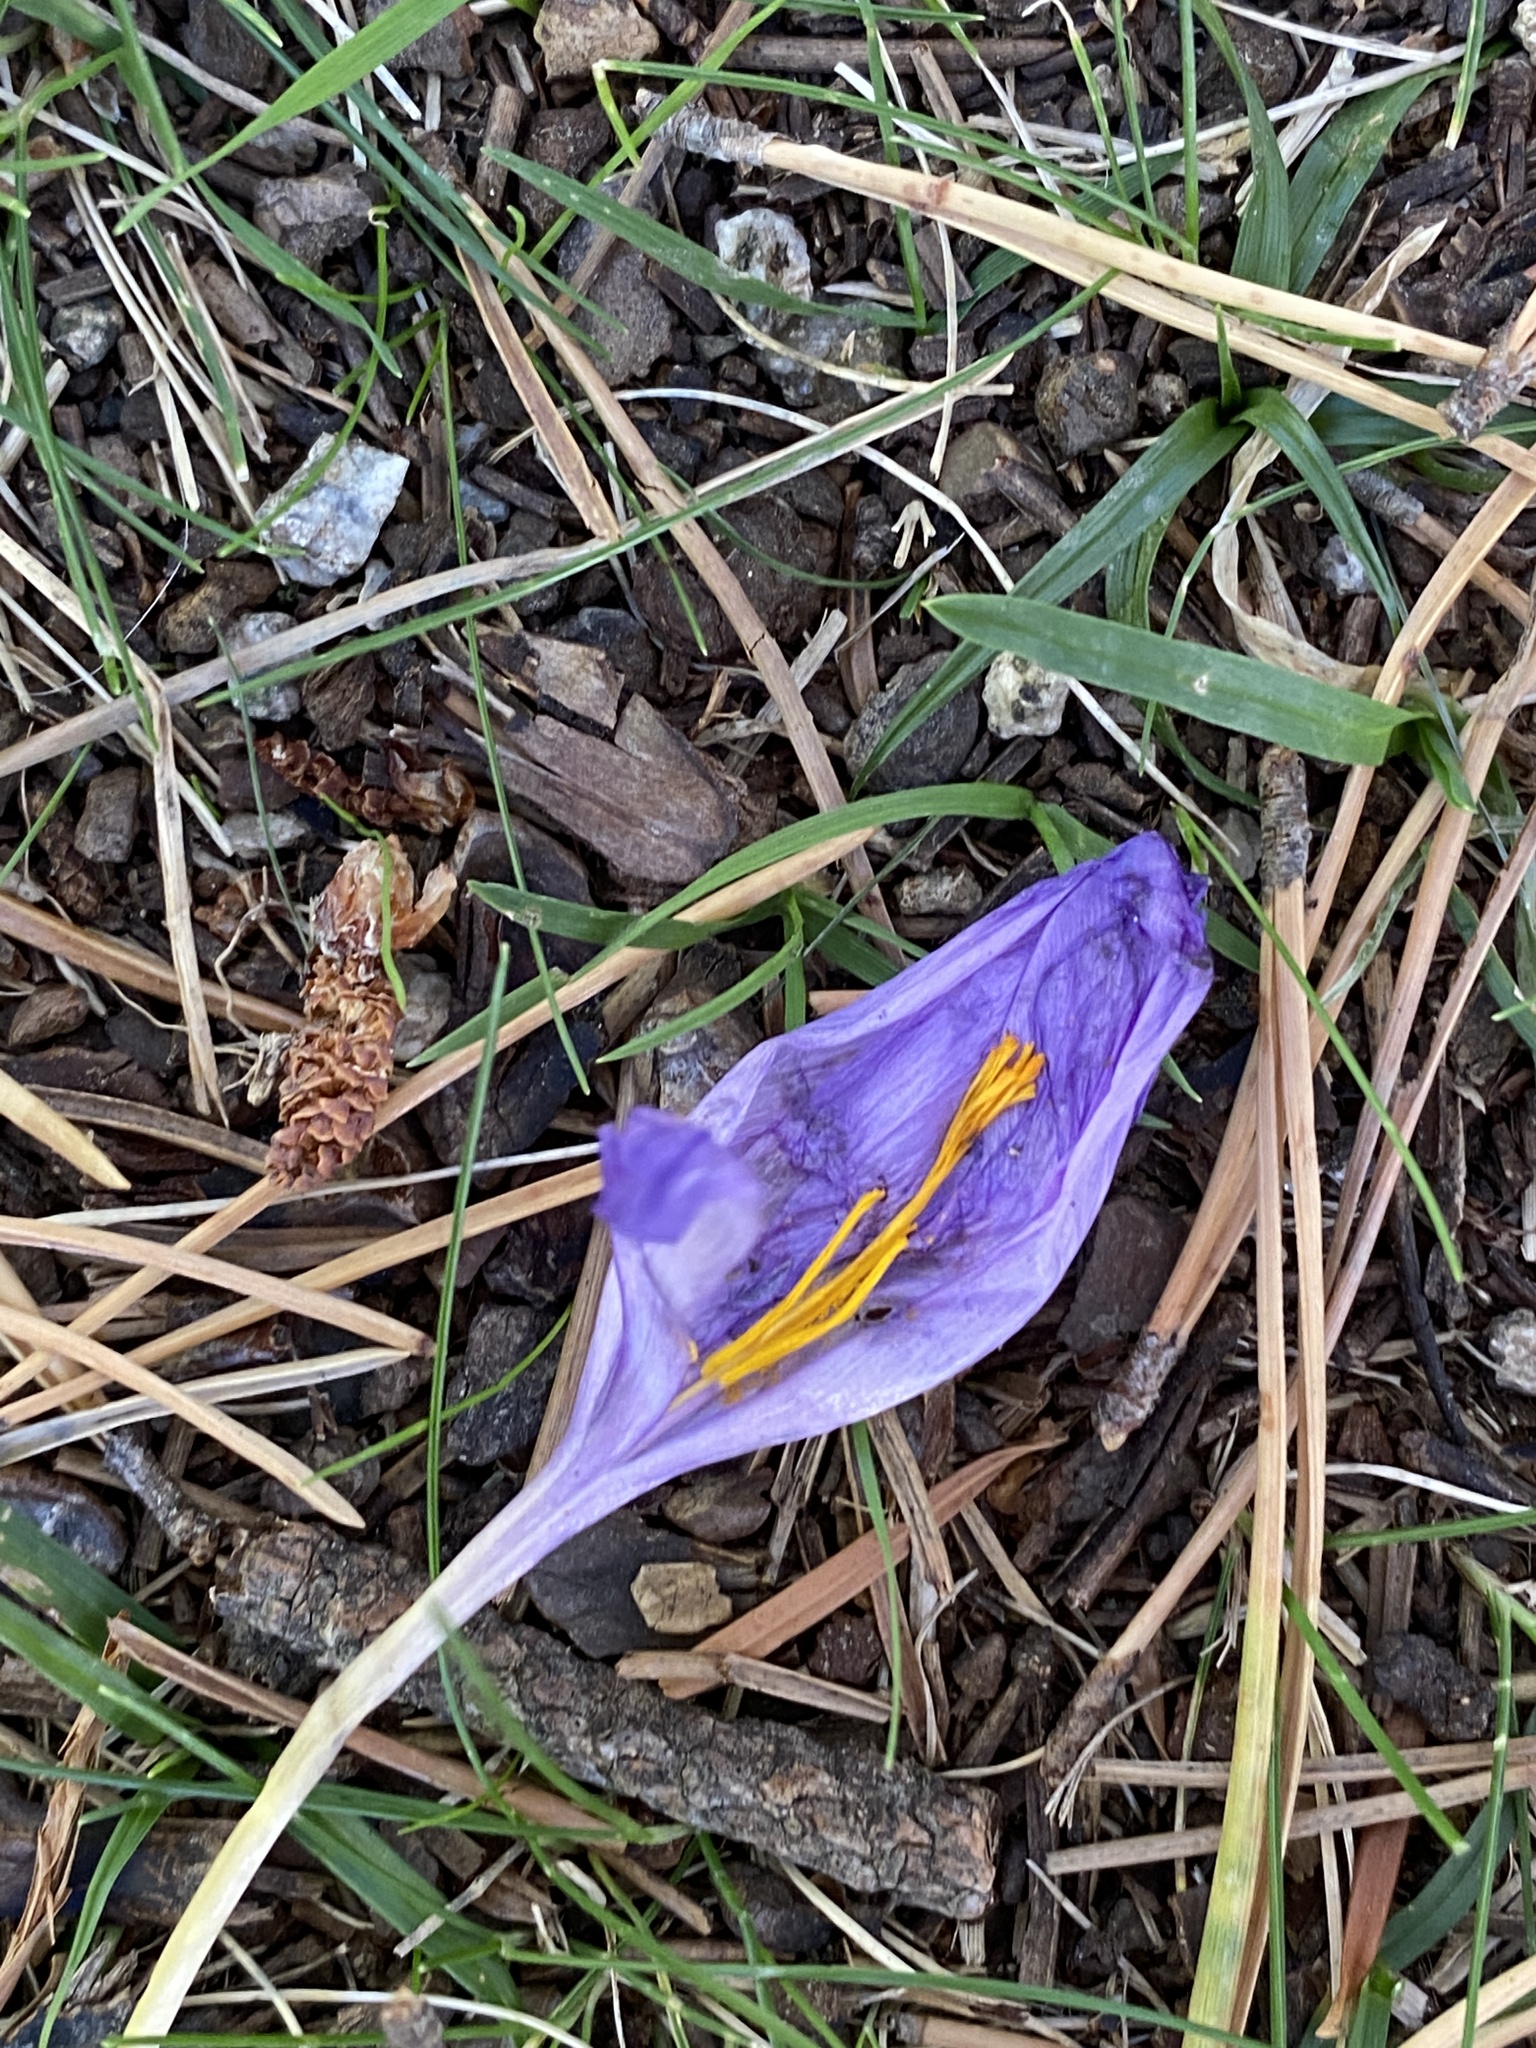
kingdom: Plantae
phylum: Tracheophyta
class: Liliopsida
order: Asparagales
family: Iridaceae
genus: Crocus
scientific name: Crocus nudiflorus
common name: Autumn crocus
